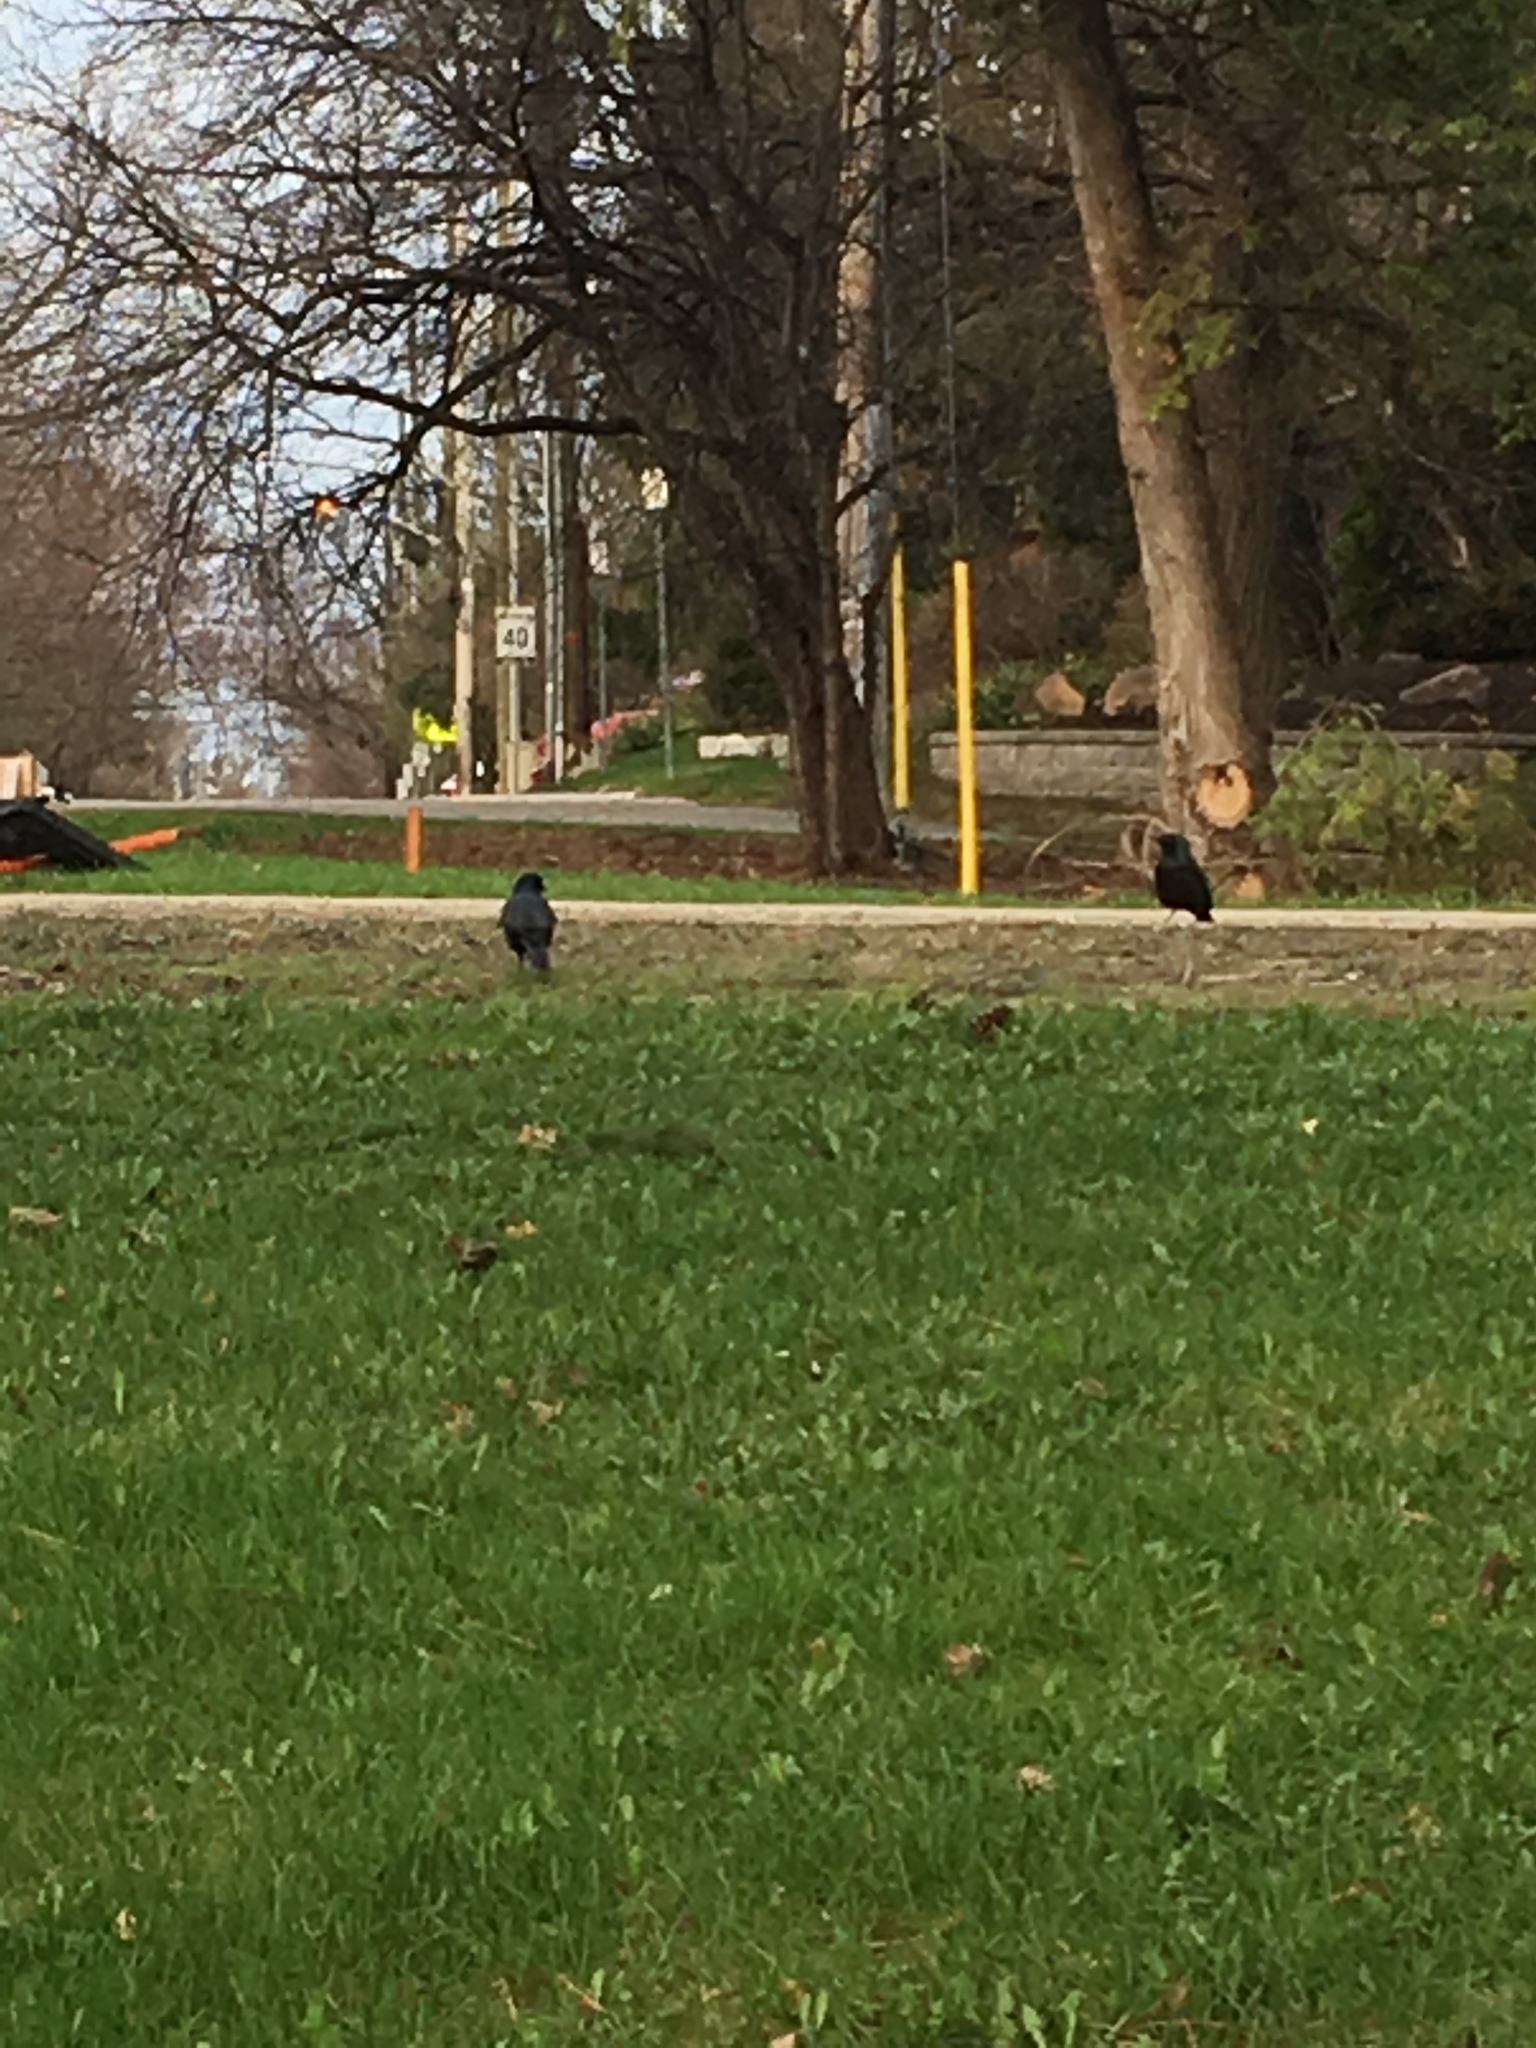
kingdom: Animalia
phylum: Chordata
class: Aves
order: Passeriformes
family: Icteridae
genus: Quiscalus
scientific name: Quiscalus quiscula
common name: Common grackle
